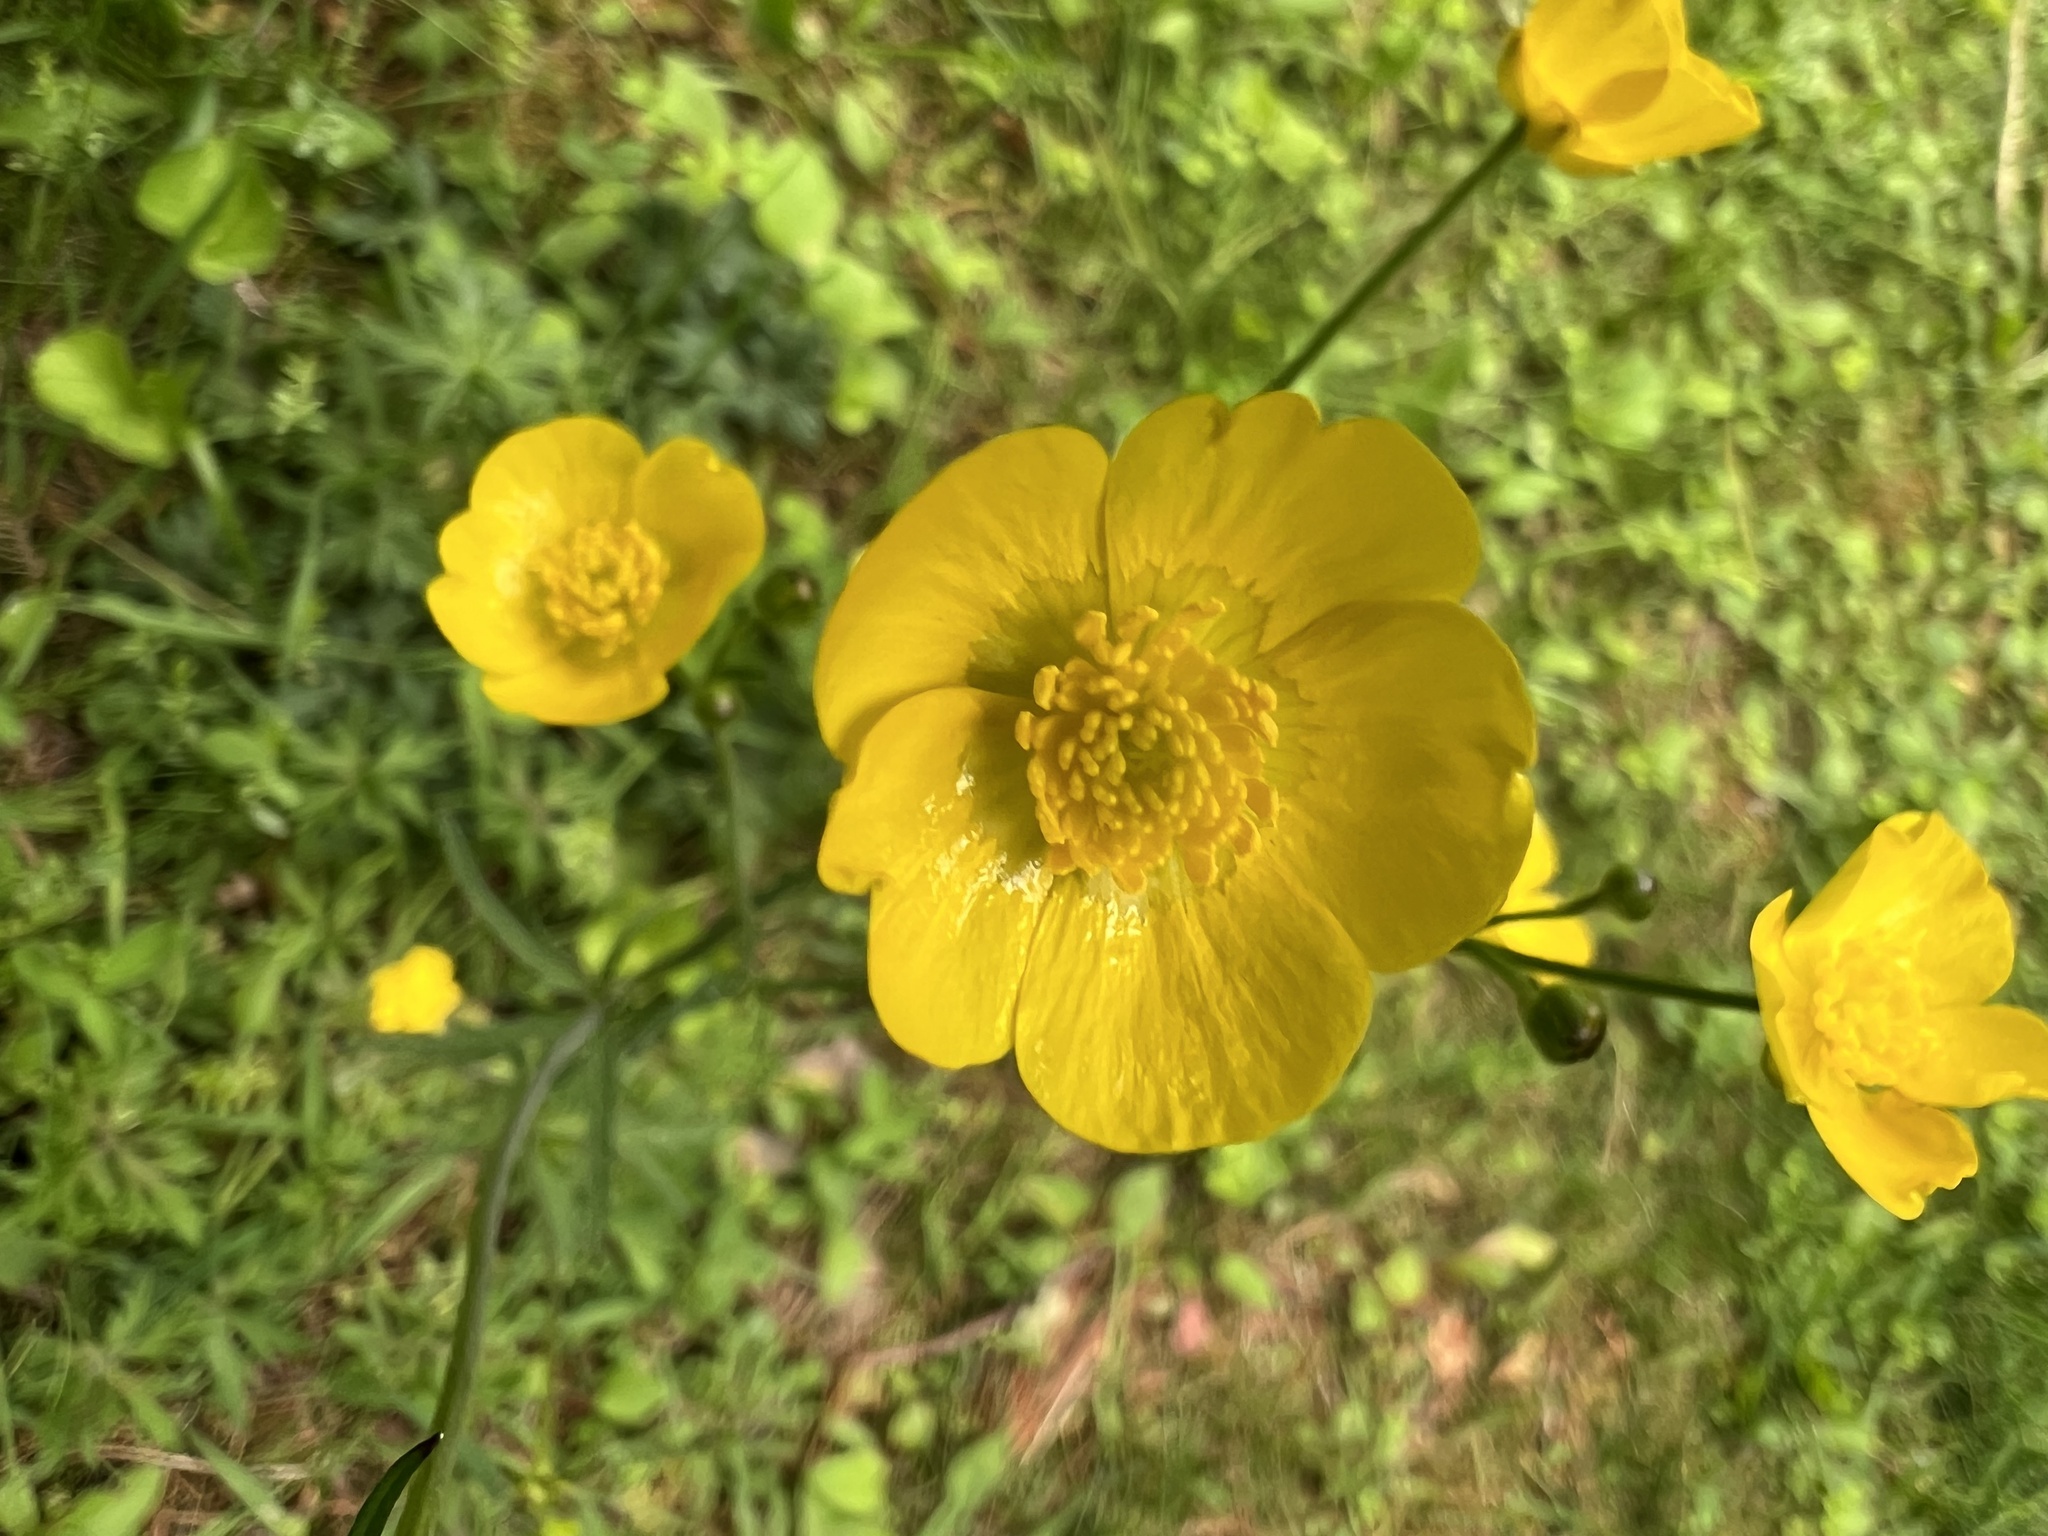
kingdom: Plantae
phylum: Tracheophyta
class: Magnoliopsida
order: Ranunculales
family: Ranunculaceae
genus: Ranunculus
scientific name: Ranunculus acris
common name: Meadow buttercup
